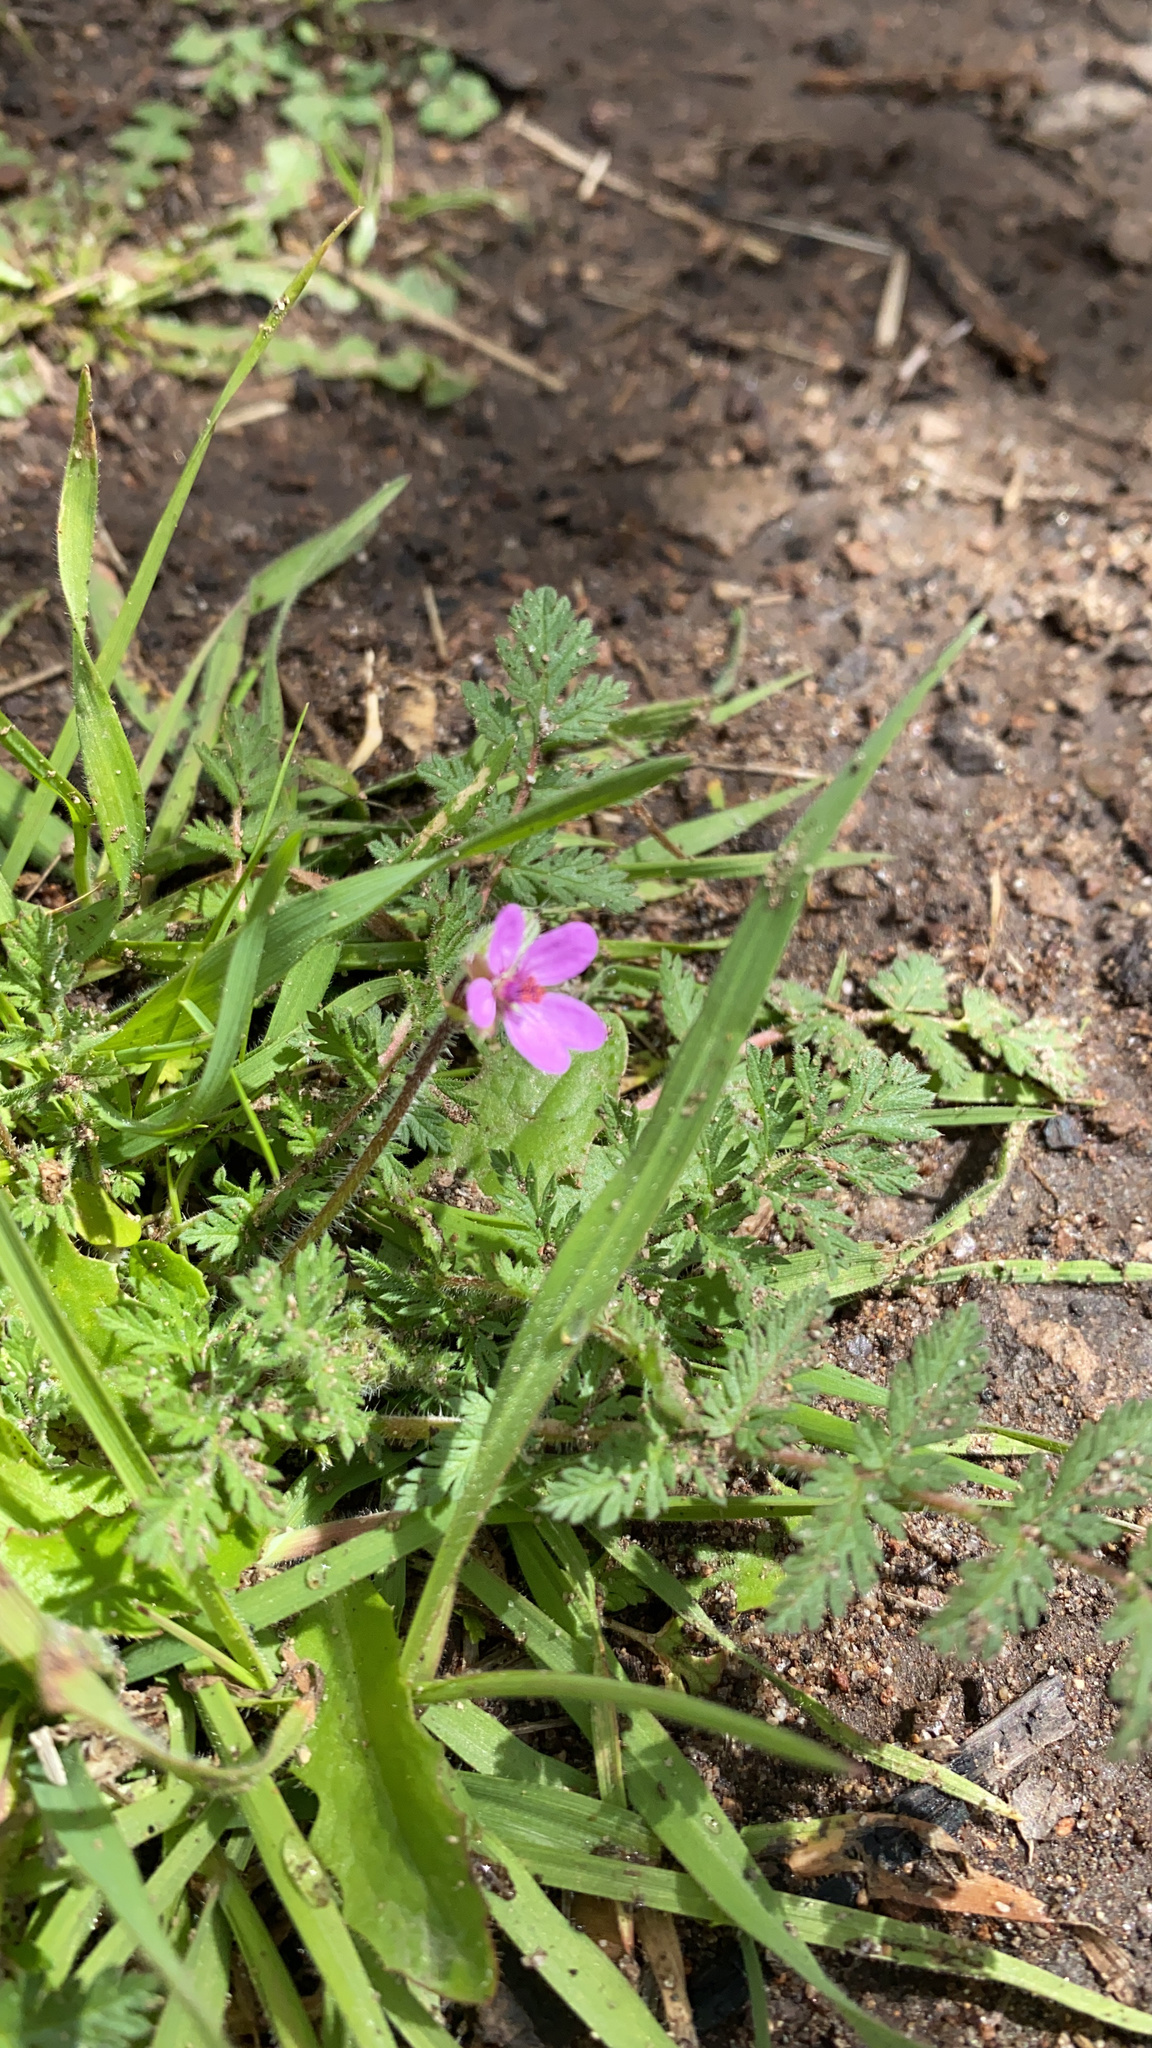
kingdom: Plantae
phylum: Tracheophyta
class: Magnoliopsida
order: Geraniales
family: Geraniaceae
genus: Erodium
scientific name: Erodium cicutarium
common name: Common stork's-bill
